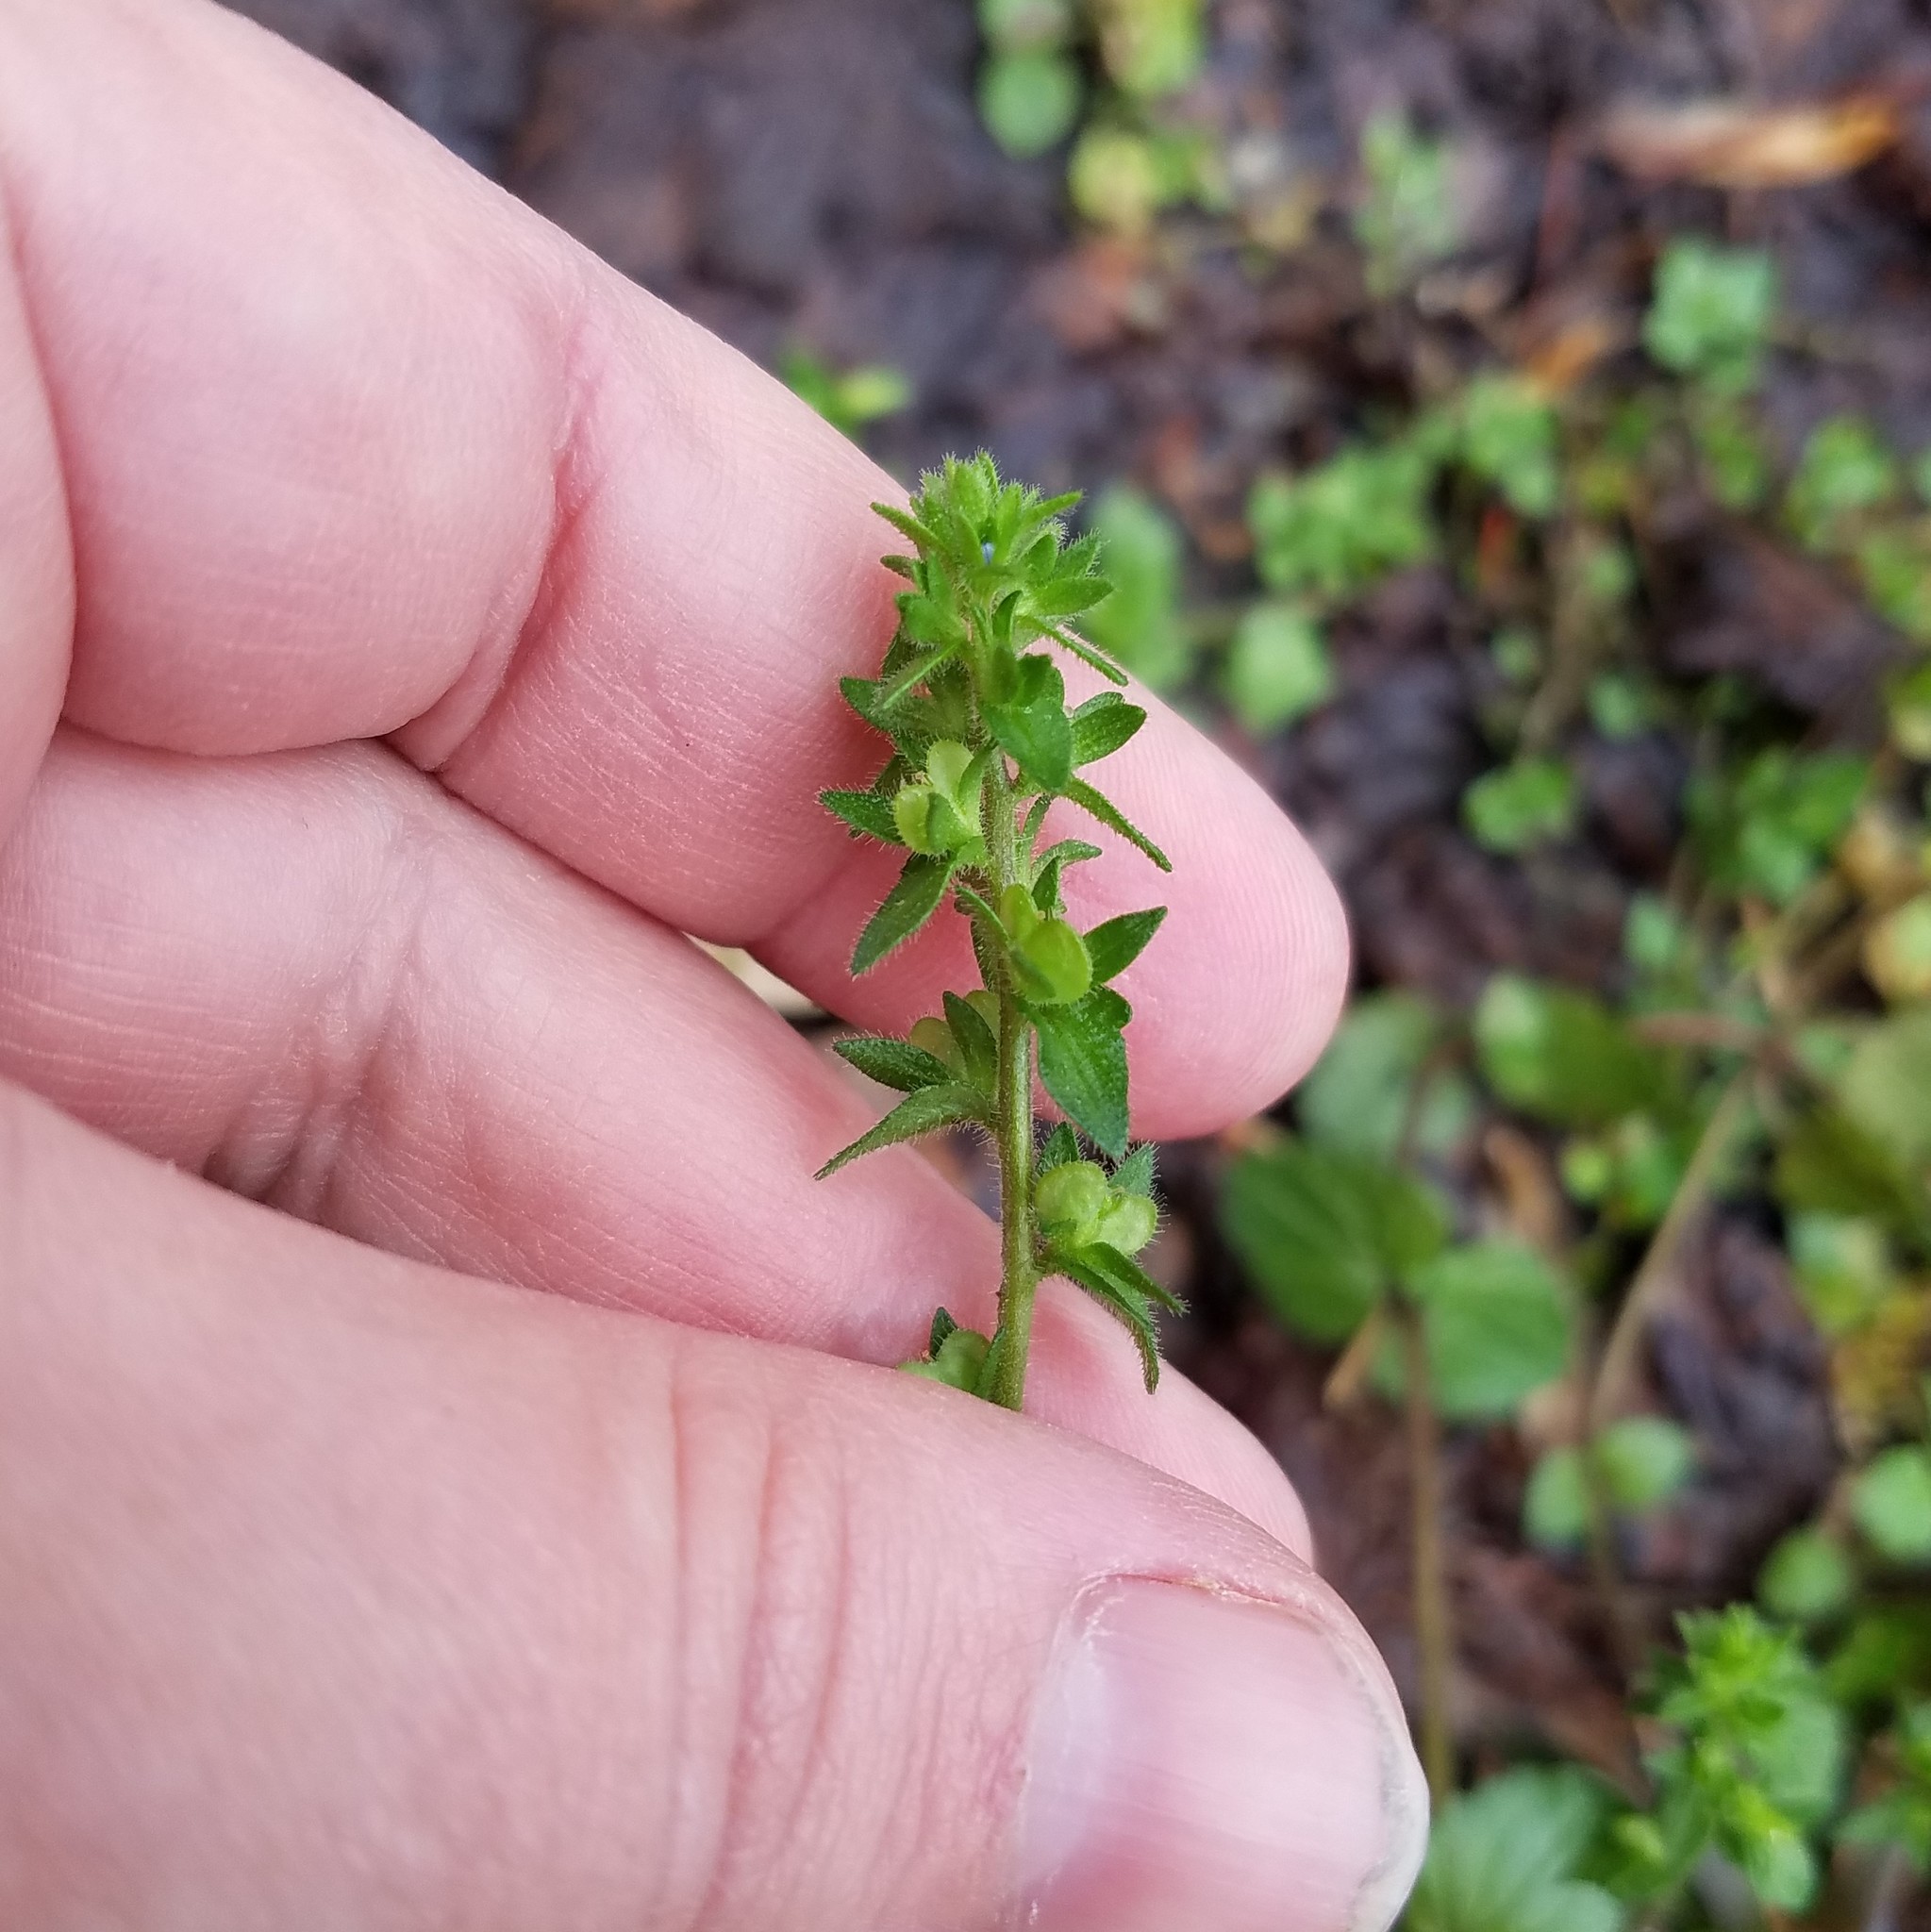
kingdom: Plantae
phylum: Tracheophyta
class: Magnoliopsida
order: Lamiales
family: Plantaginaceae
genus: Veronica
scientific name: Veronica arvensis
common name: Corn speedwell
